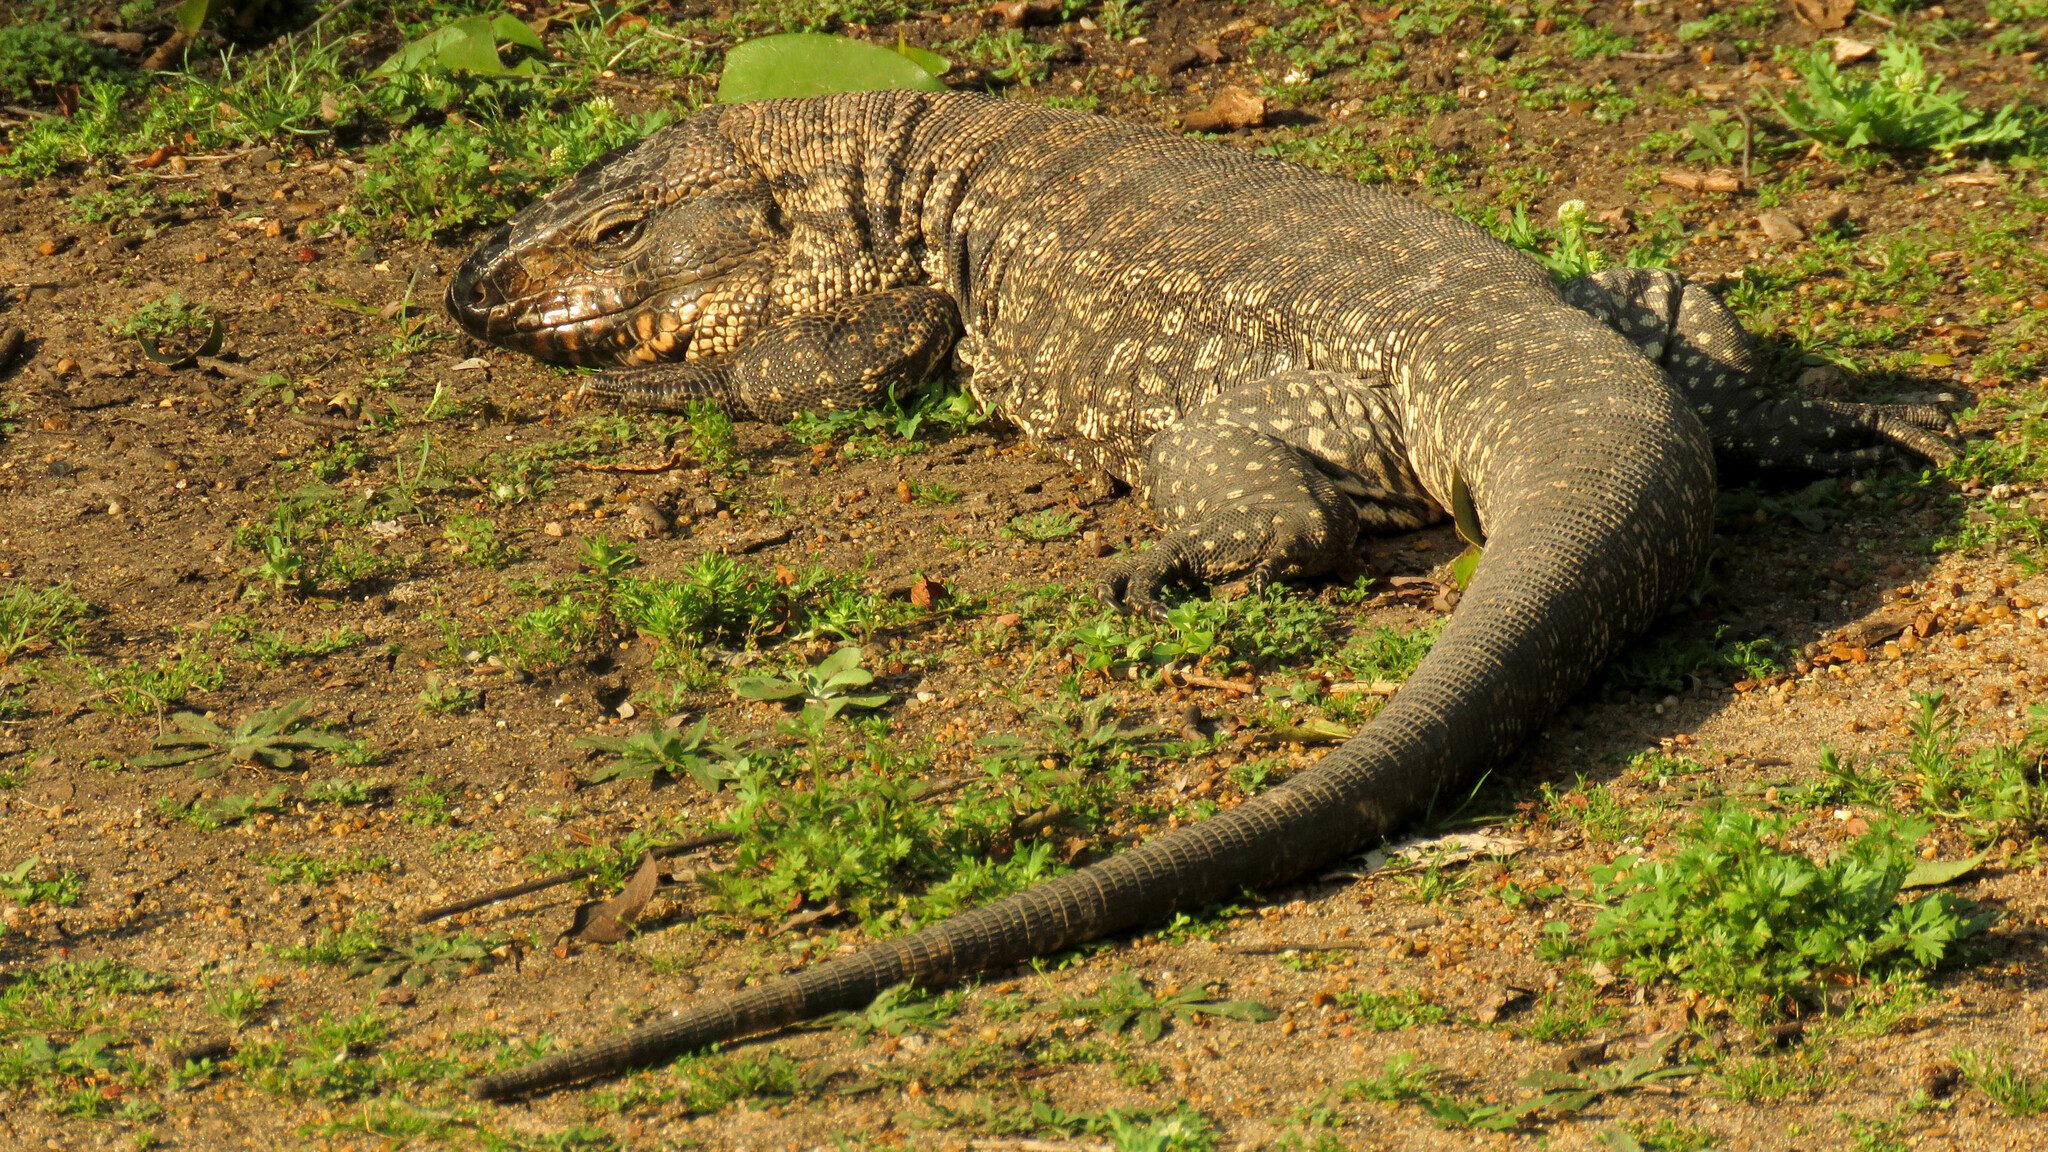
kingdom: Animalia
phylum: Chordata
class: Squamata
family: Teiidae
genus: Salvator
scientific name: Salvator merianae
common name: Argentine black and white tegu
